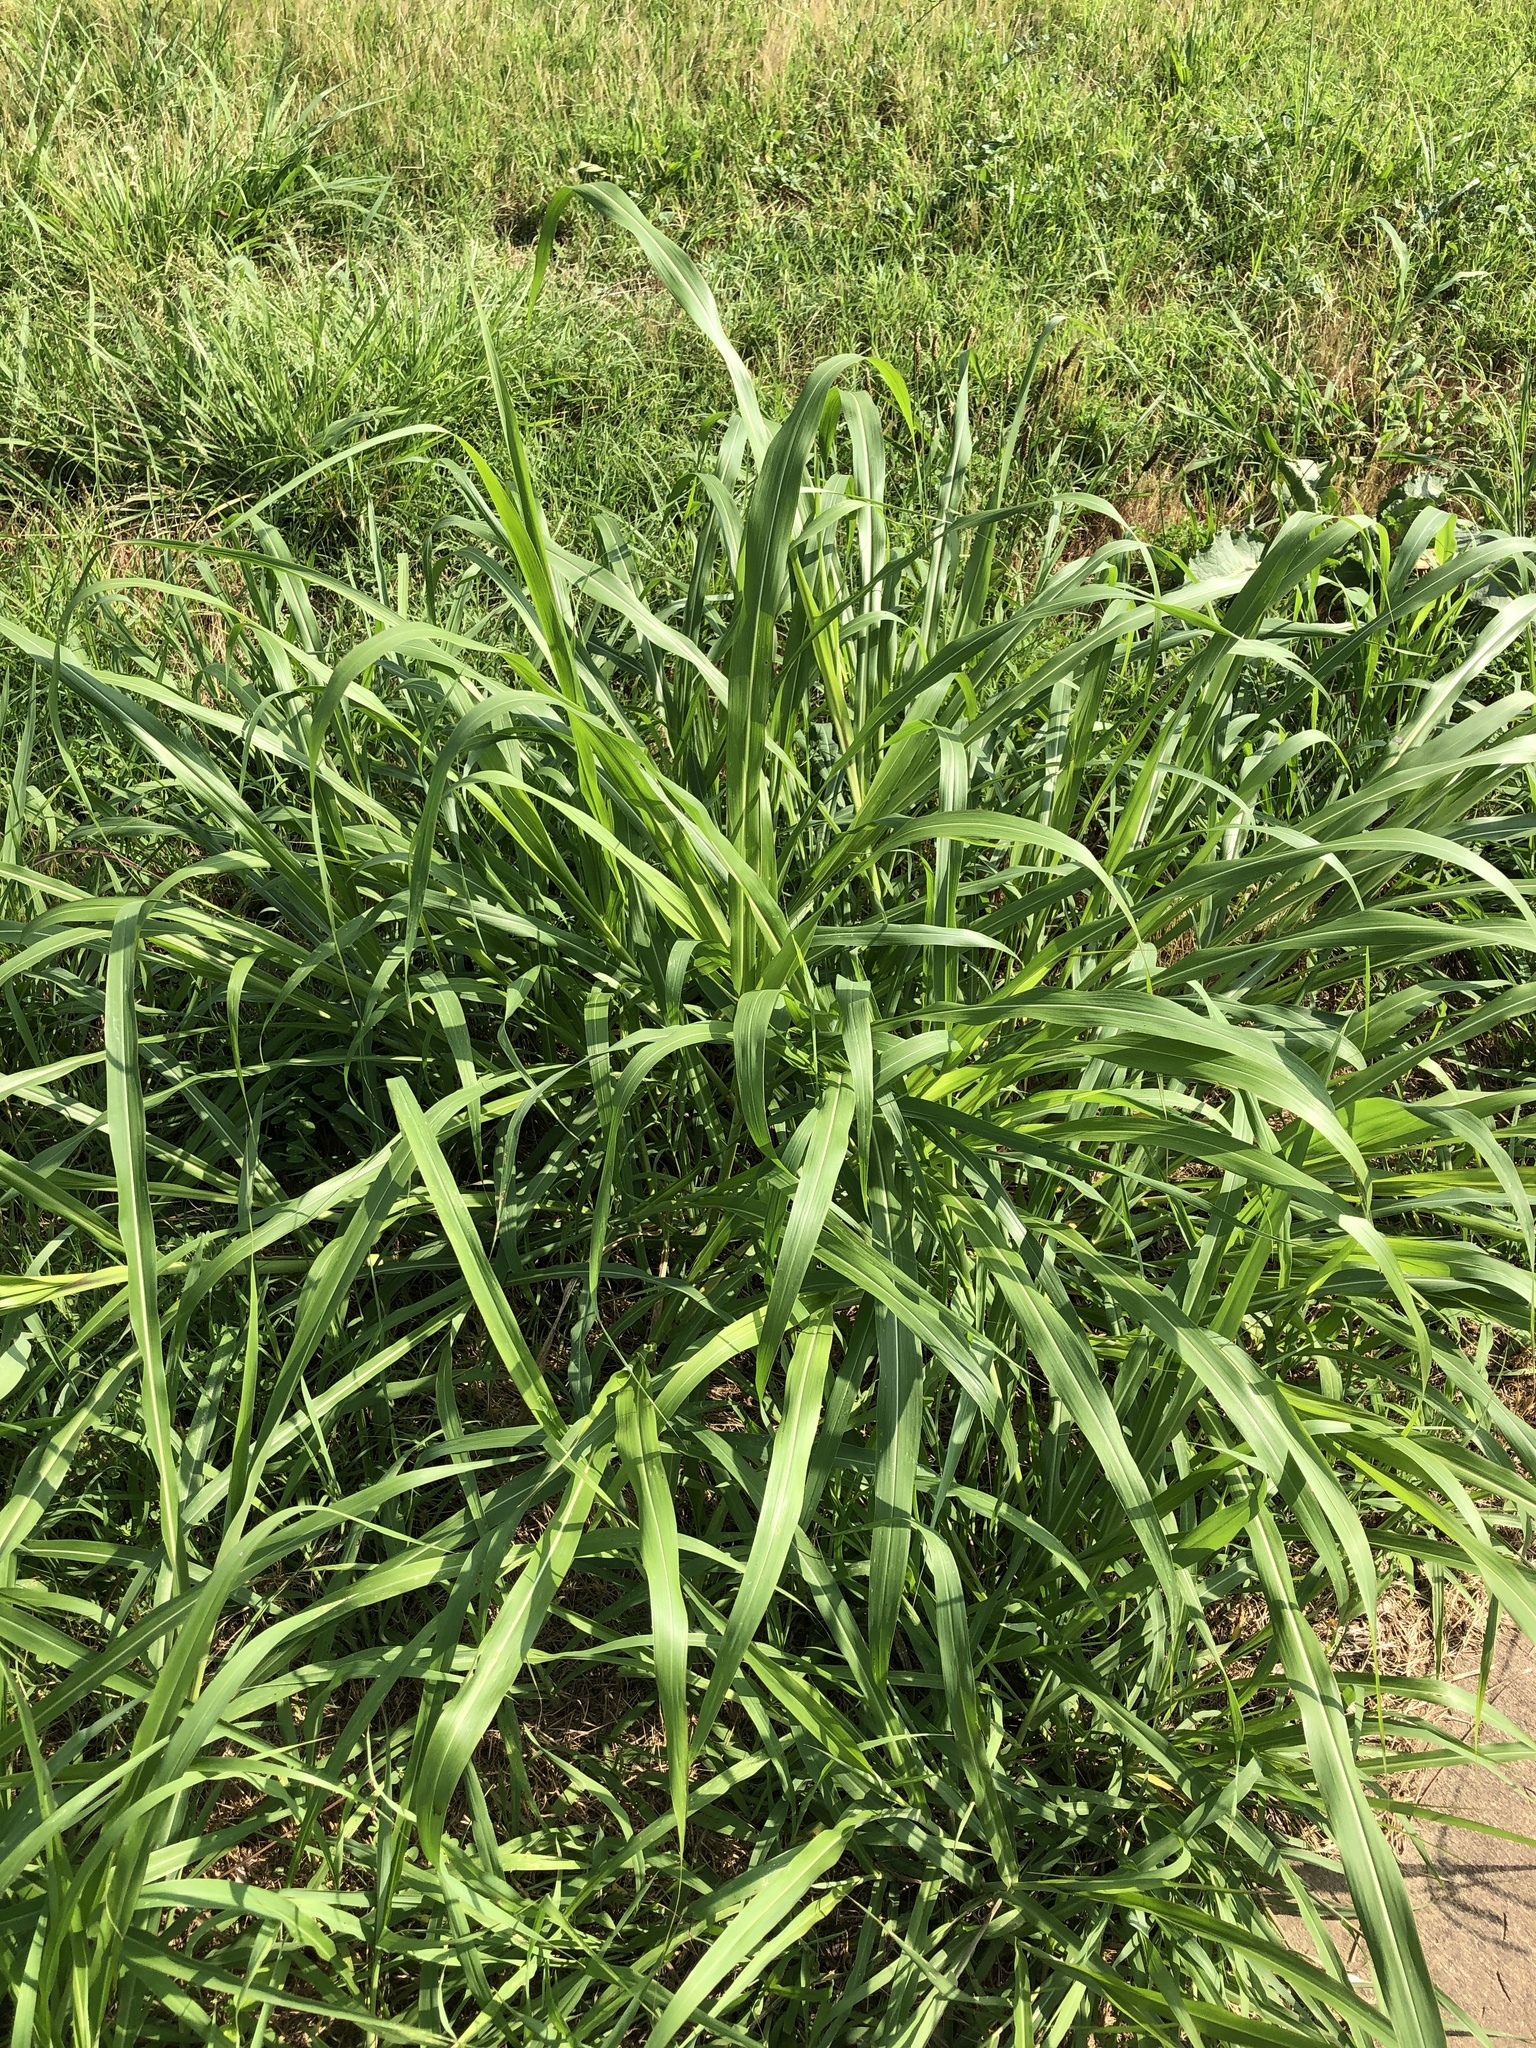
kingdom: Plantae
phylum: Tracheophyta
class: Liliopsida
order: Poales
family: Poaceae
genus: Sorghum
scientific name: Sorghum halepense
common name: Johnson-grass
